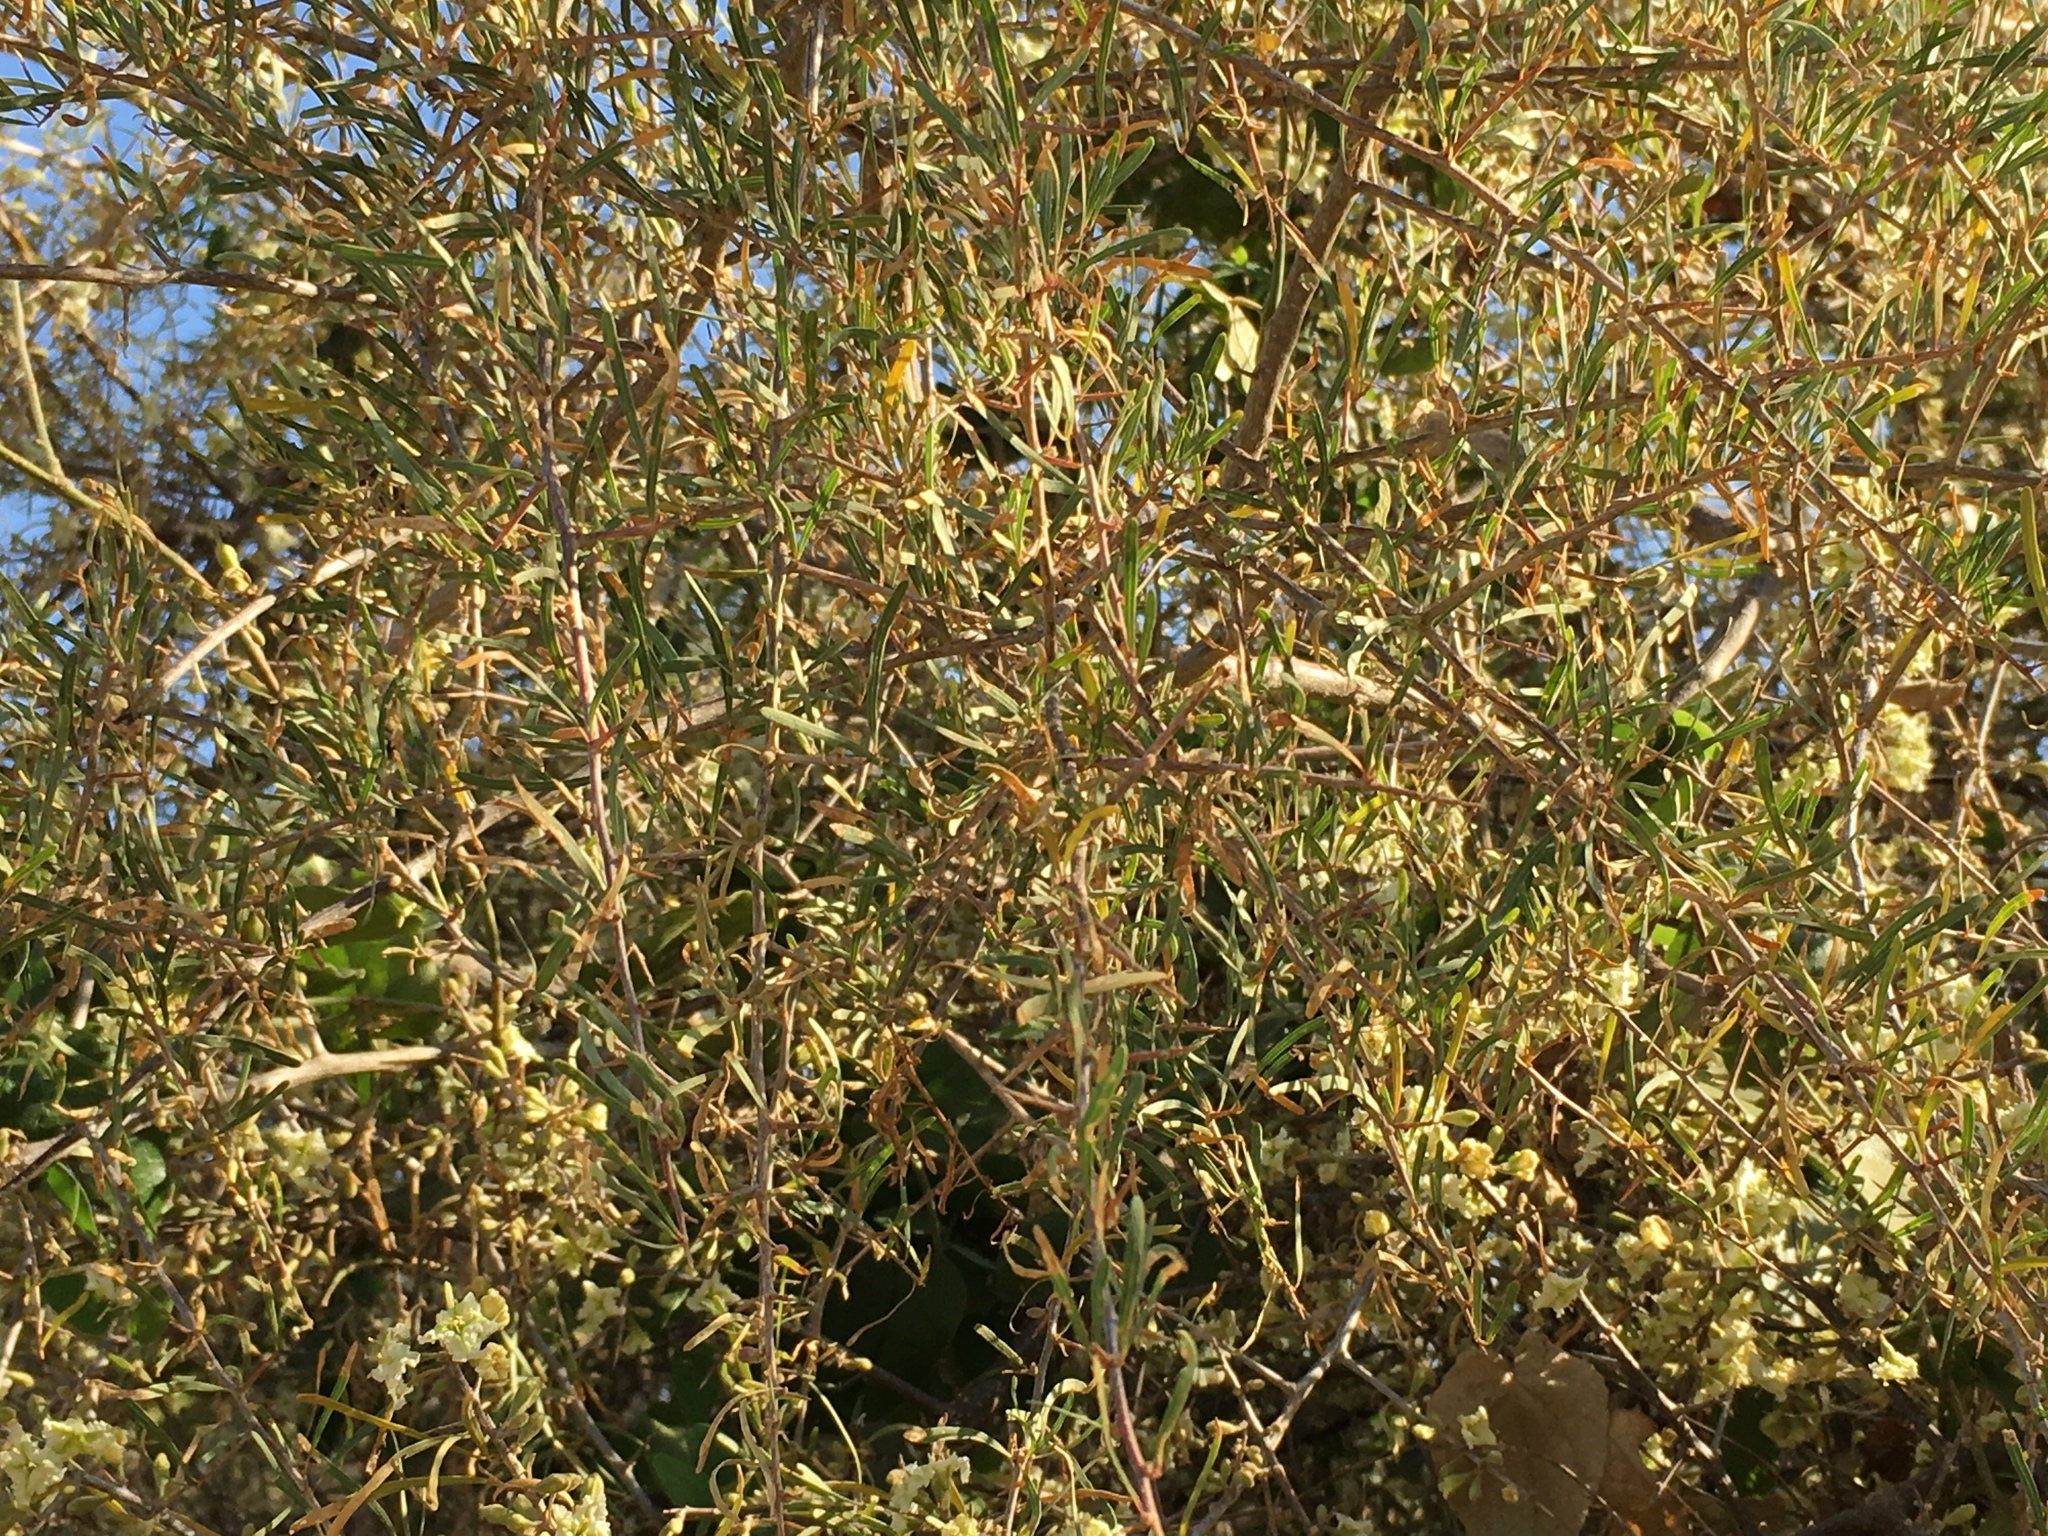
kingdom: Plantae
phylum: Tracheophyta
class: Magnoliopsida
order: Caryophyllales
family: Nyctaginaceae
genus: Phaeoptilum
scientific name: Phaeoptilum spinosum
